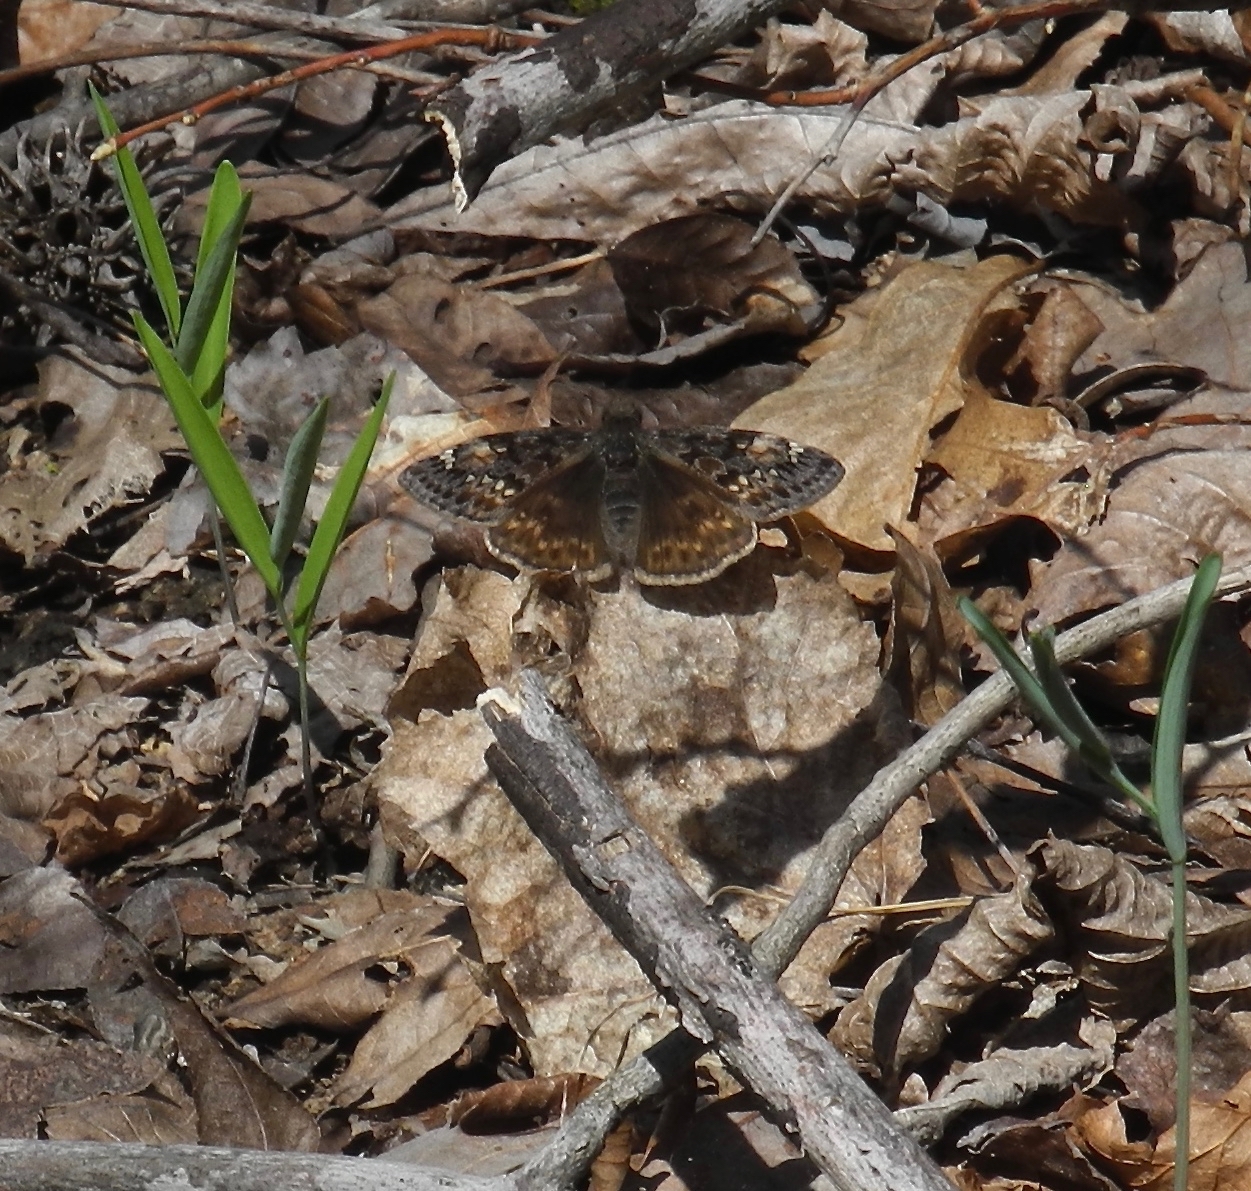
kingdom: Animalia
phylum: Arthropoda
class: Insecta
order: Lepidoptera
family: Hesperiidae
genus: Erynnis
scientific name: Erynnis juvenalis
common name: Juvenal's duskywing
